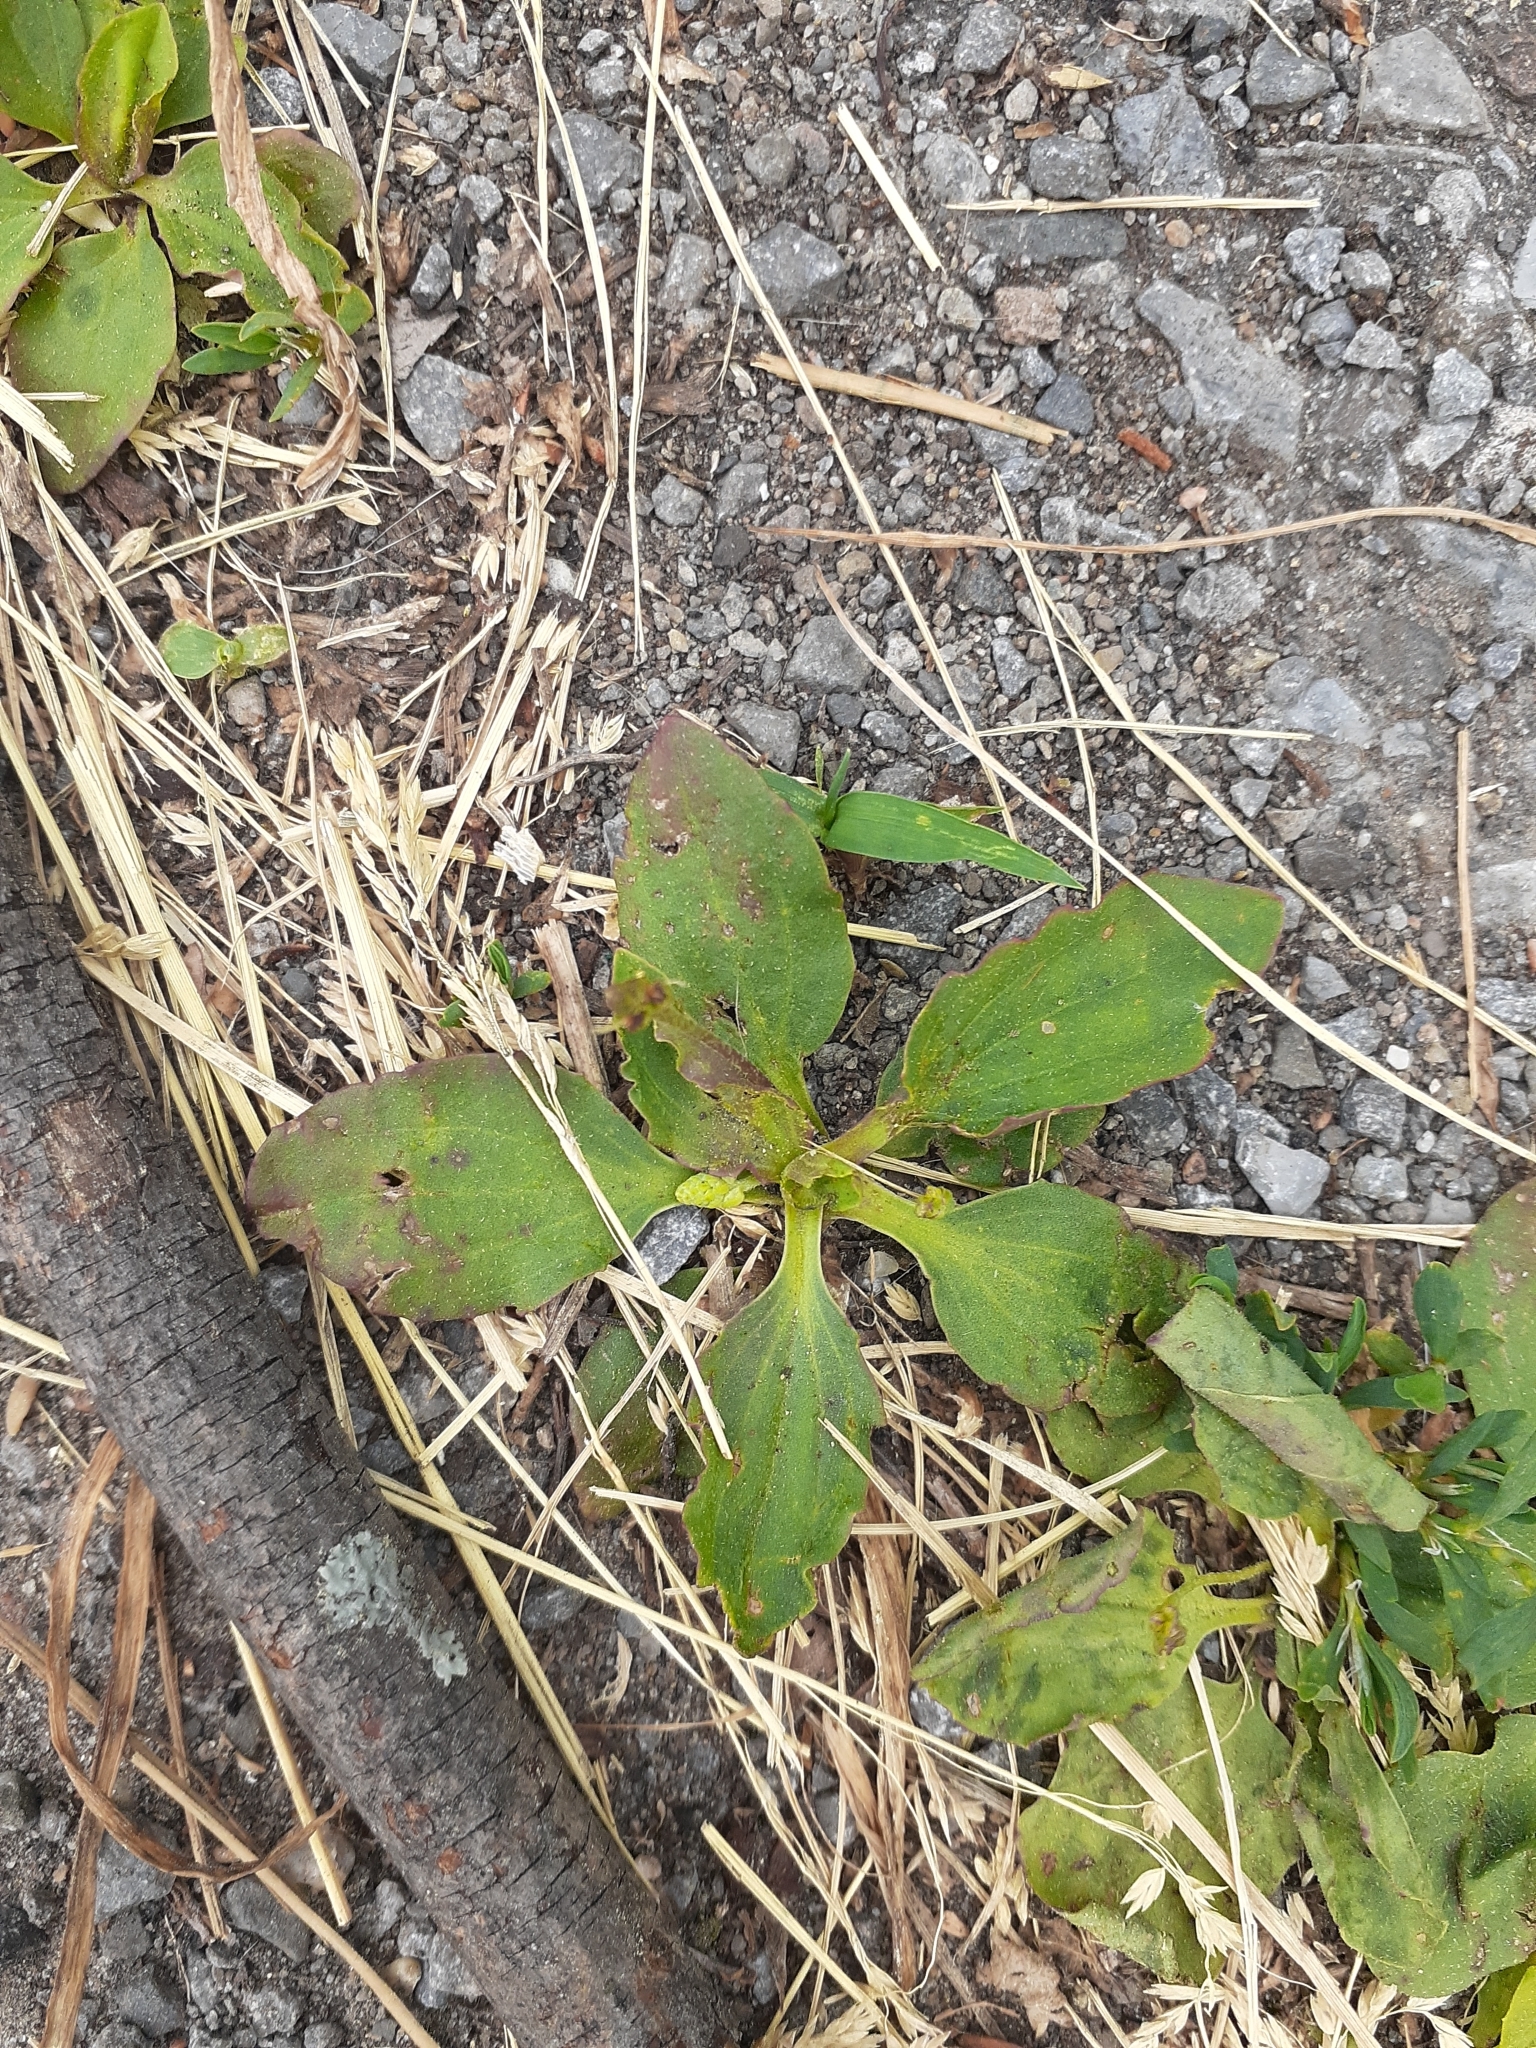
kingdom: Plantae
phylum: Tracheophyta
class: Magnoliopsida
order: Lamiales
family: Plantaginaceae
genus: Plantago
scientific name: Plantago major
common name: Common plantain
